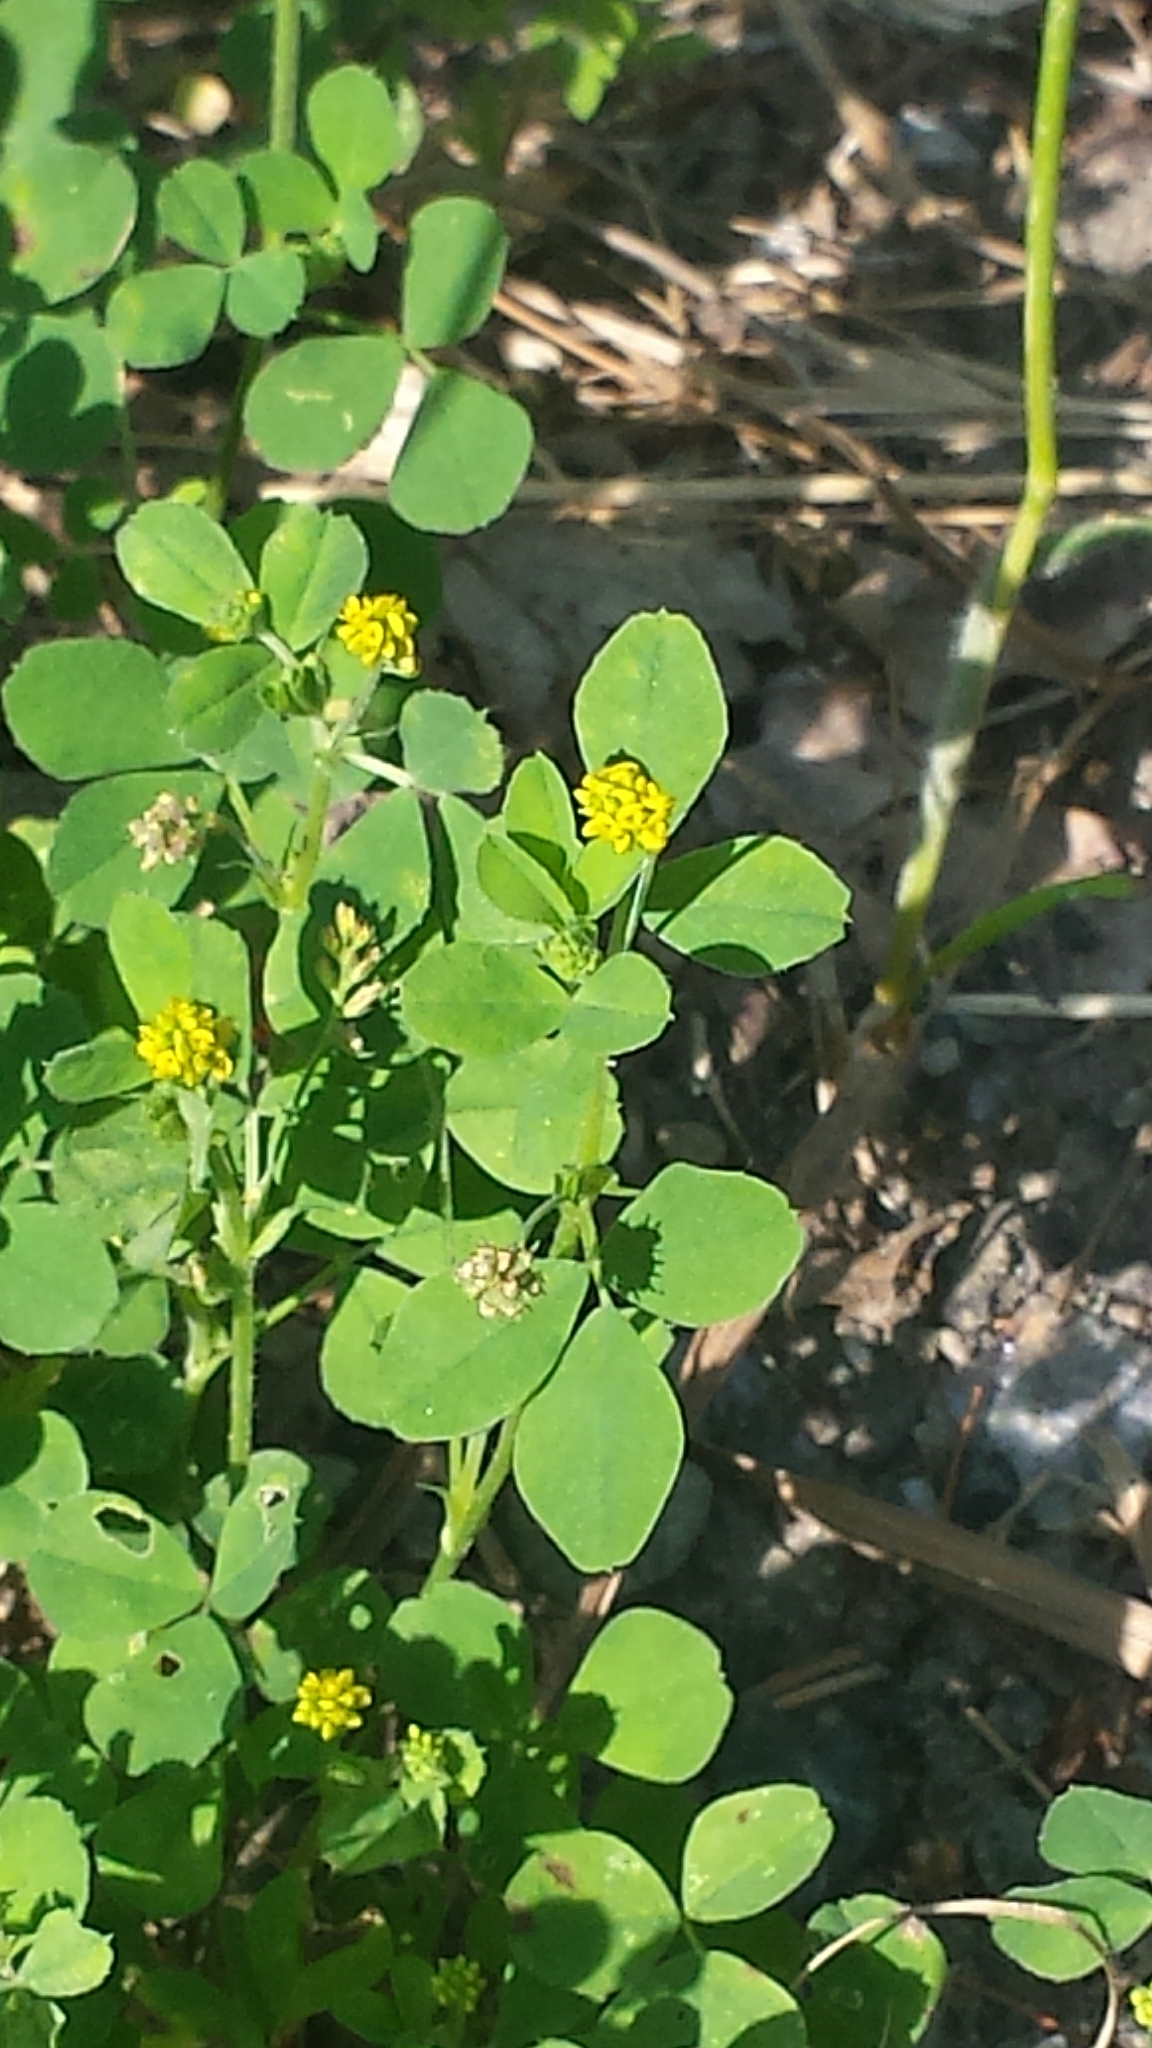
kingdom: Plantae
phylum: Tracheophyta
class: Magnoliopsida
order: Fabales
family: Fabaceae
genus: Medicago
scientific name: Medicago lupulina
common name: Black medick
